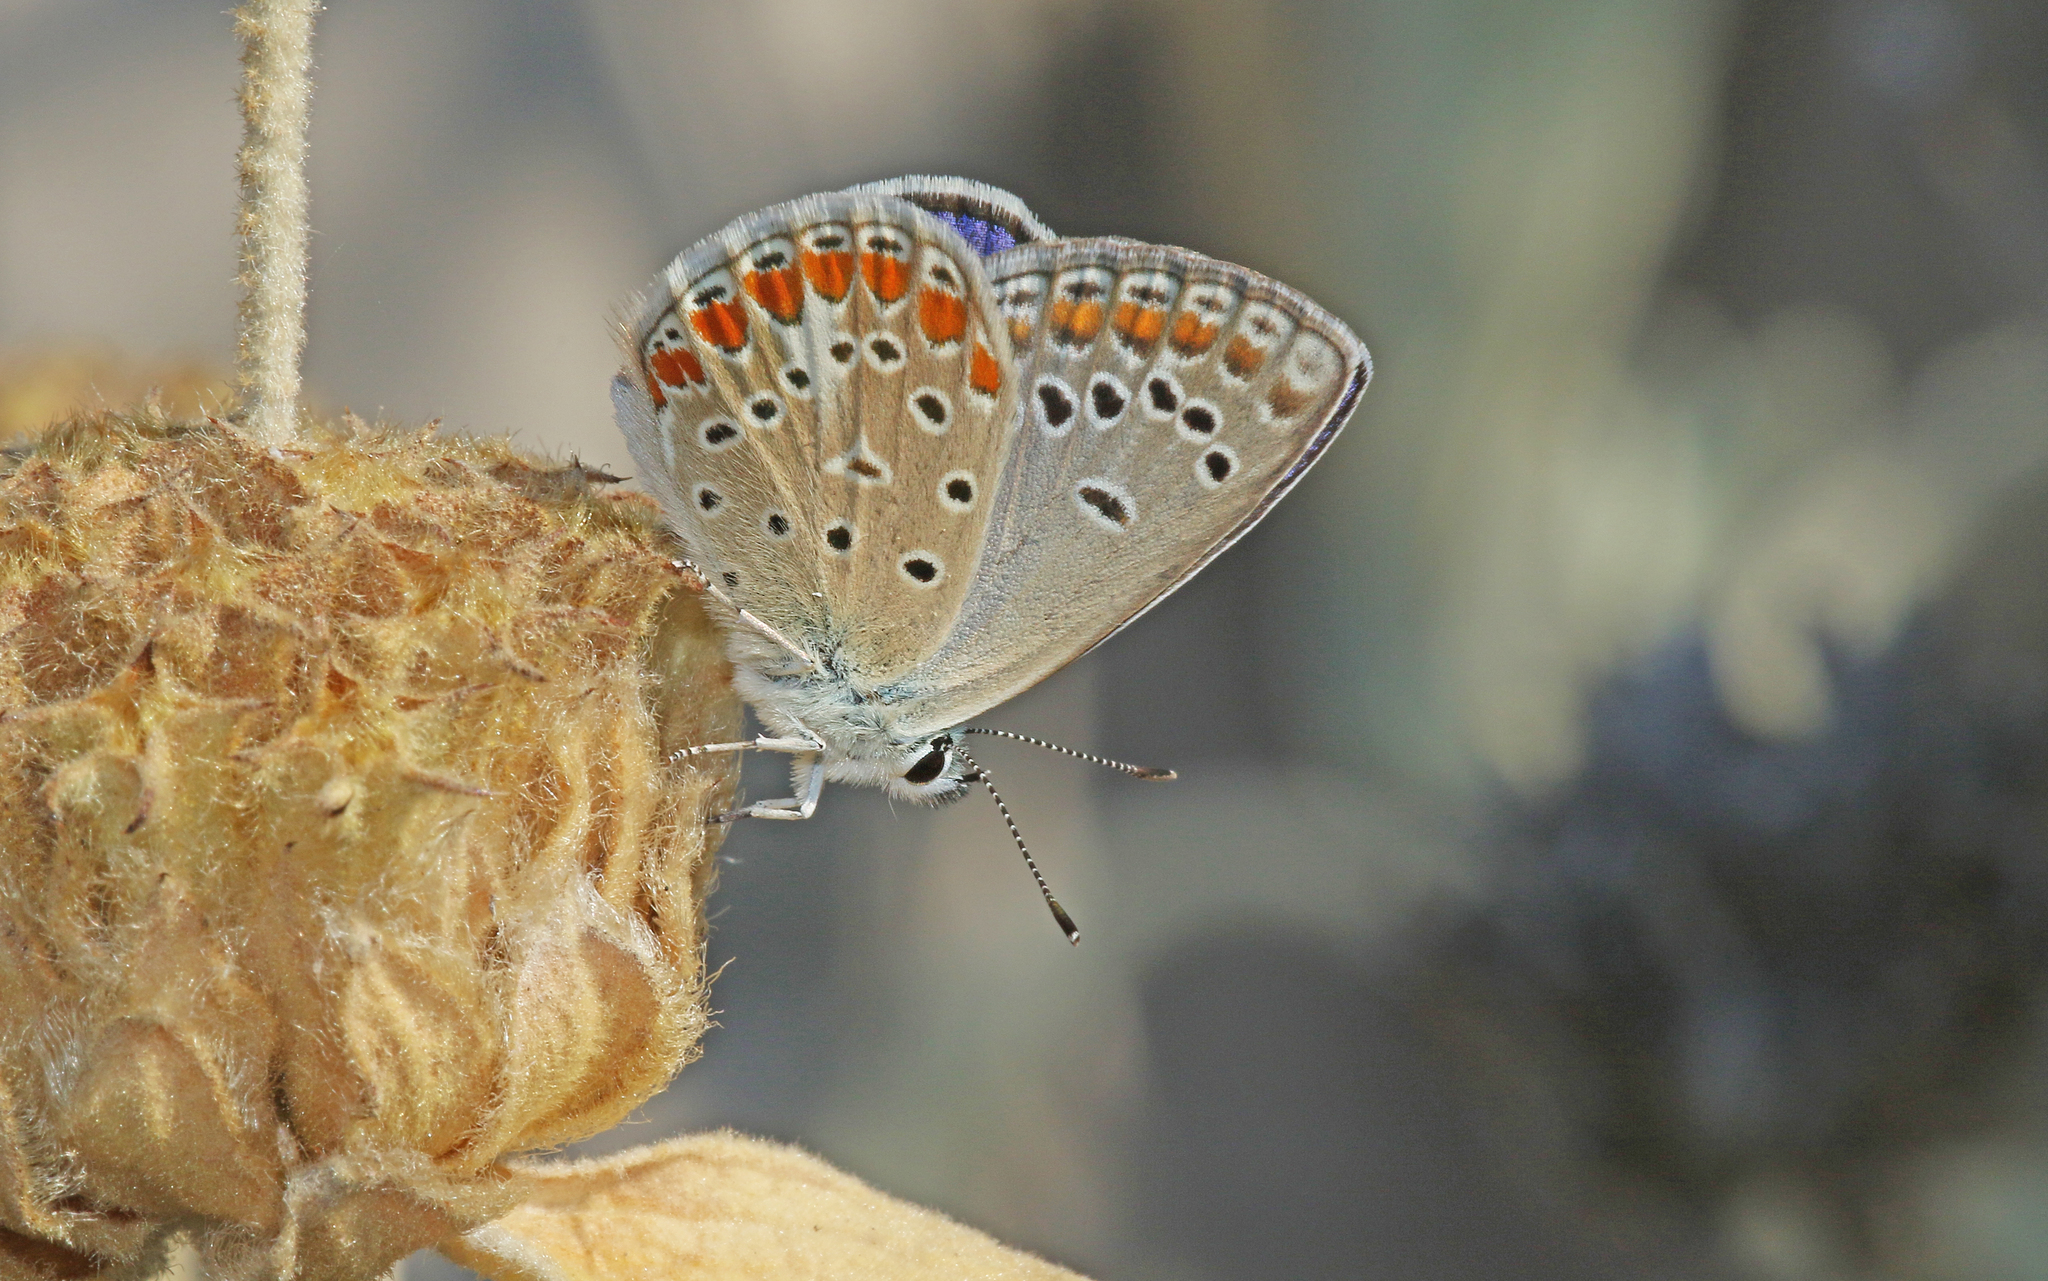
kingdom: Animalia
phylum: Arthropoda
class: Insecta
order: Lepidoptera
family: Lycaenidae
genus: Polyommatus
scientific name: Polyommatus thersites
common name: Chapman's blue
